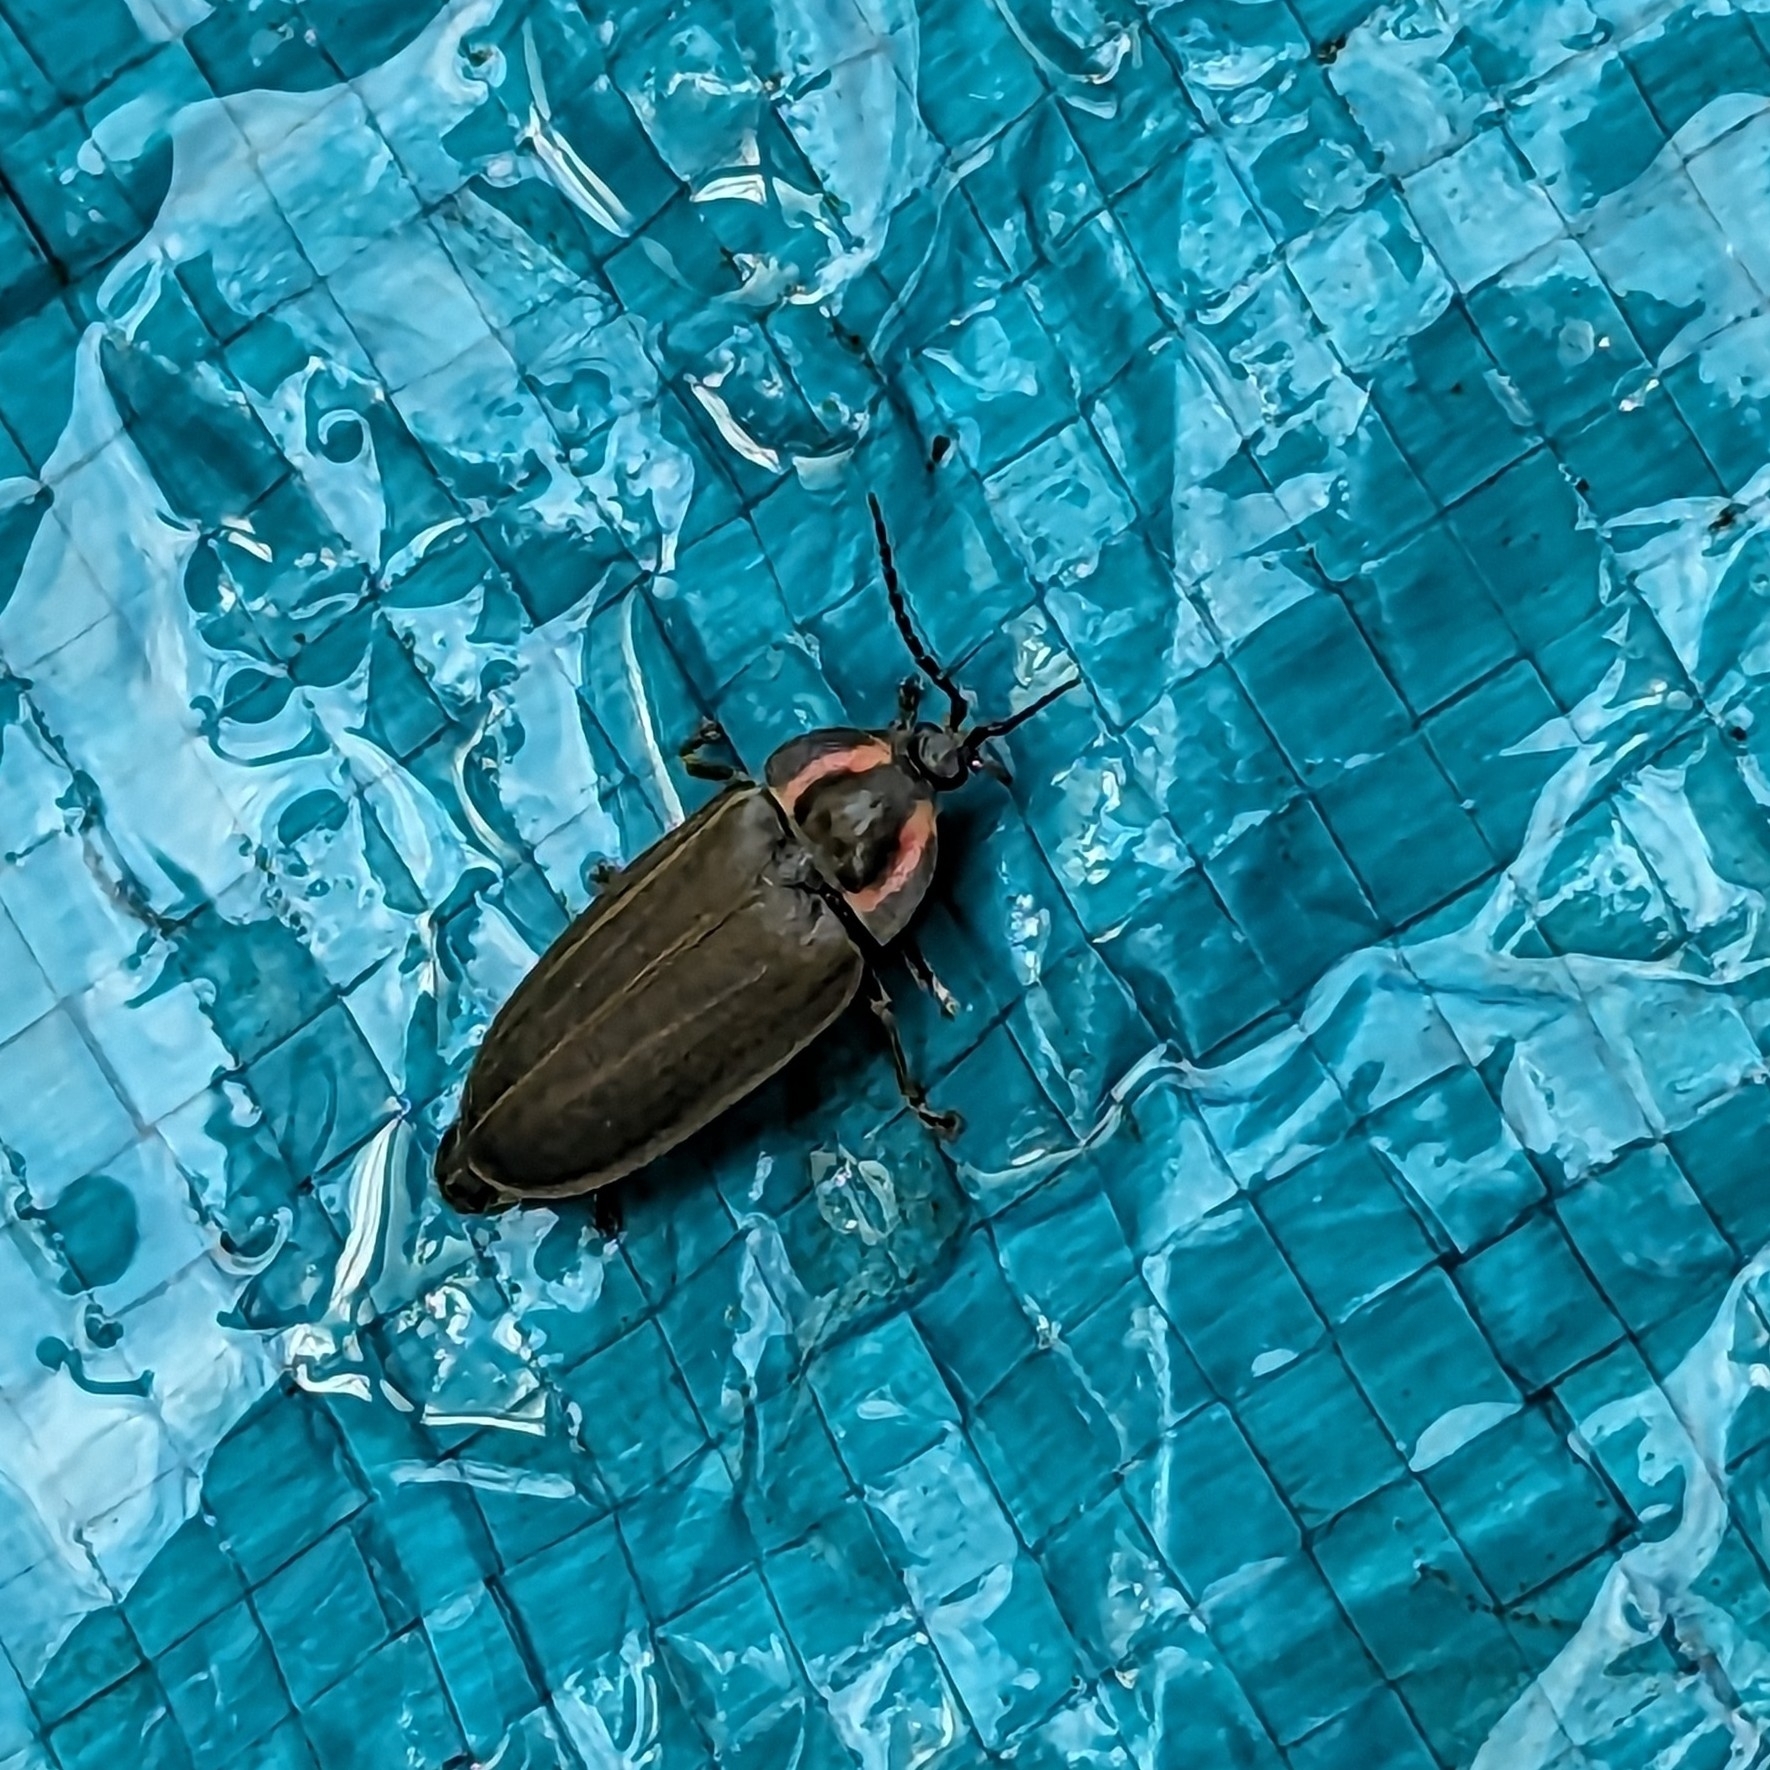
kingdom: Animalia
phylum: Arthropoda
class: Insecta
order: Coleoptera
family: Lampyridae
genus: Photinus
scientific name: Photinus corrusca
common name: Winter firefly
